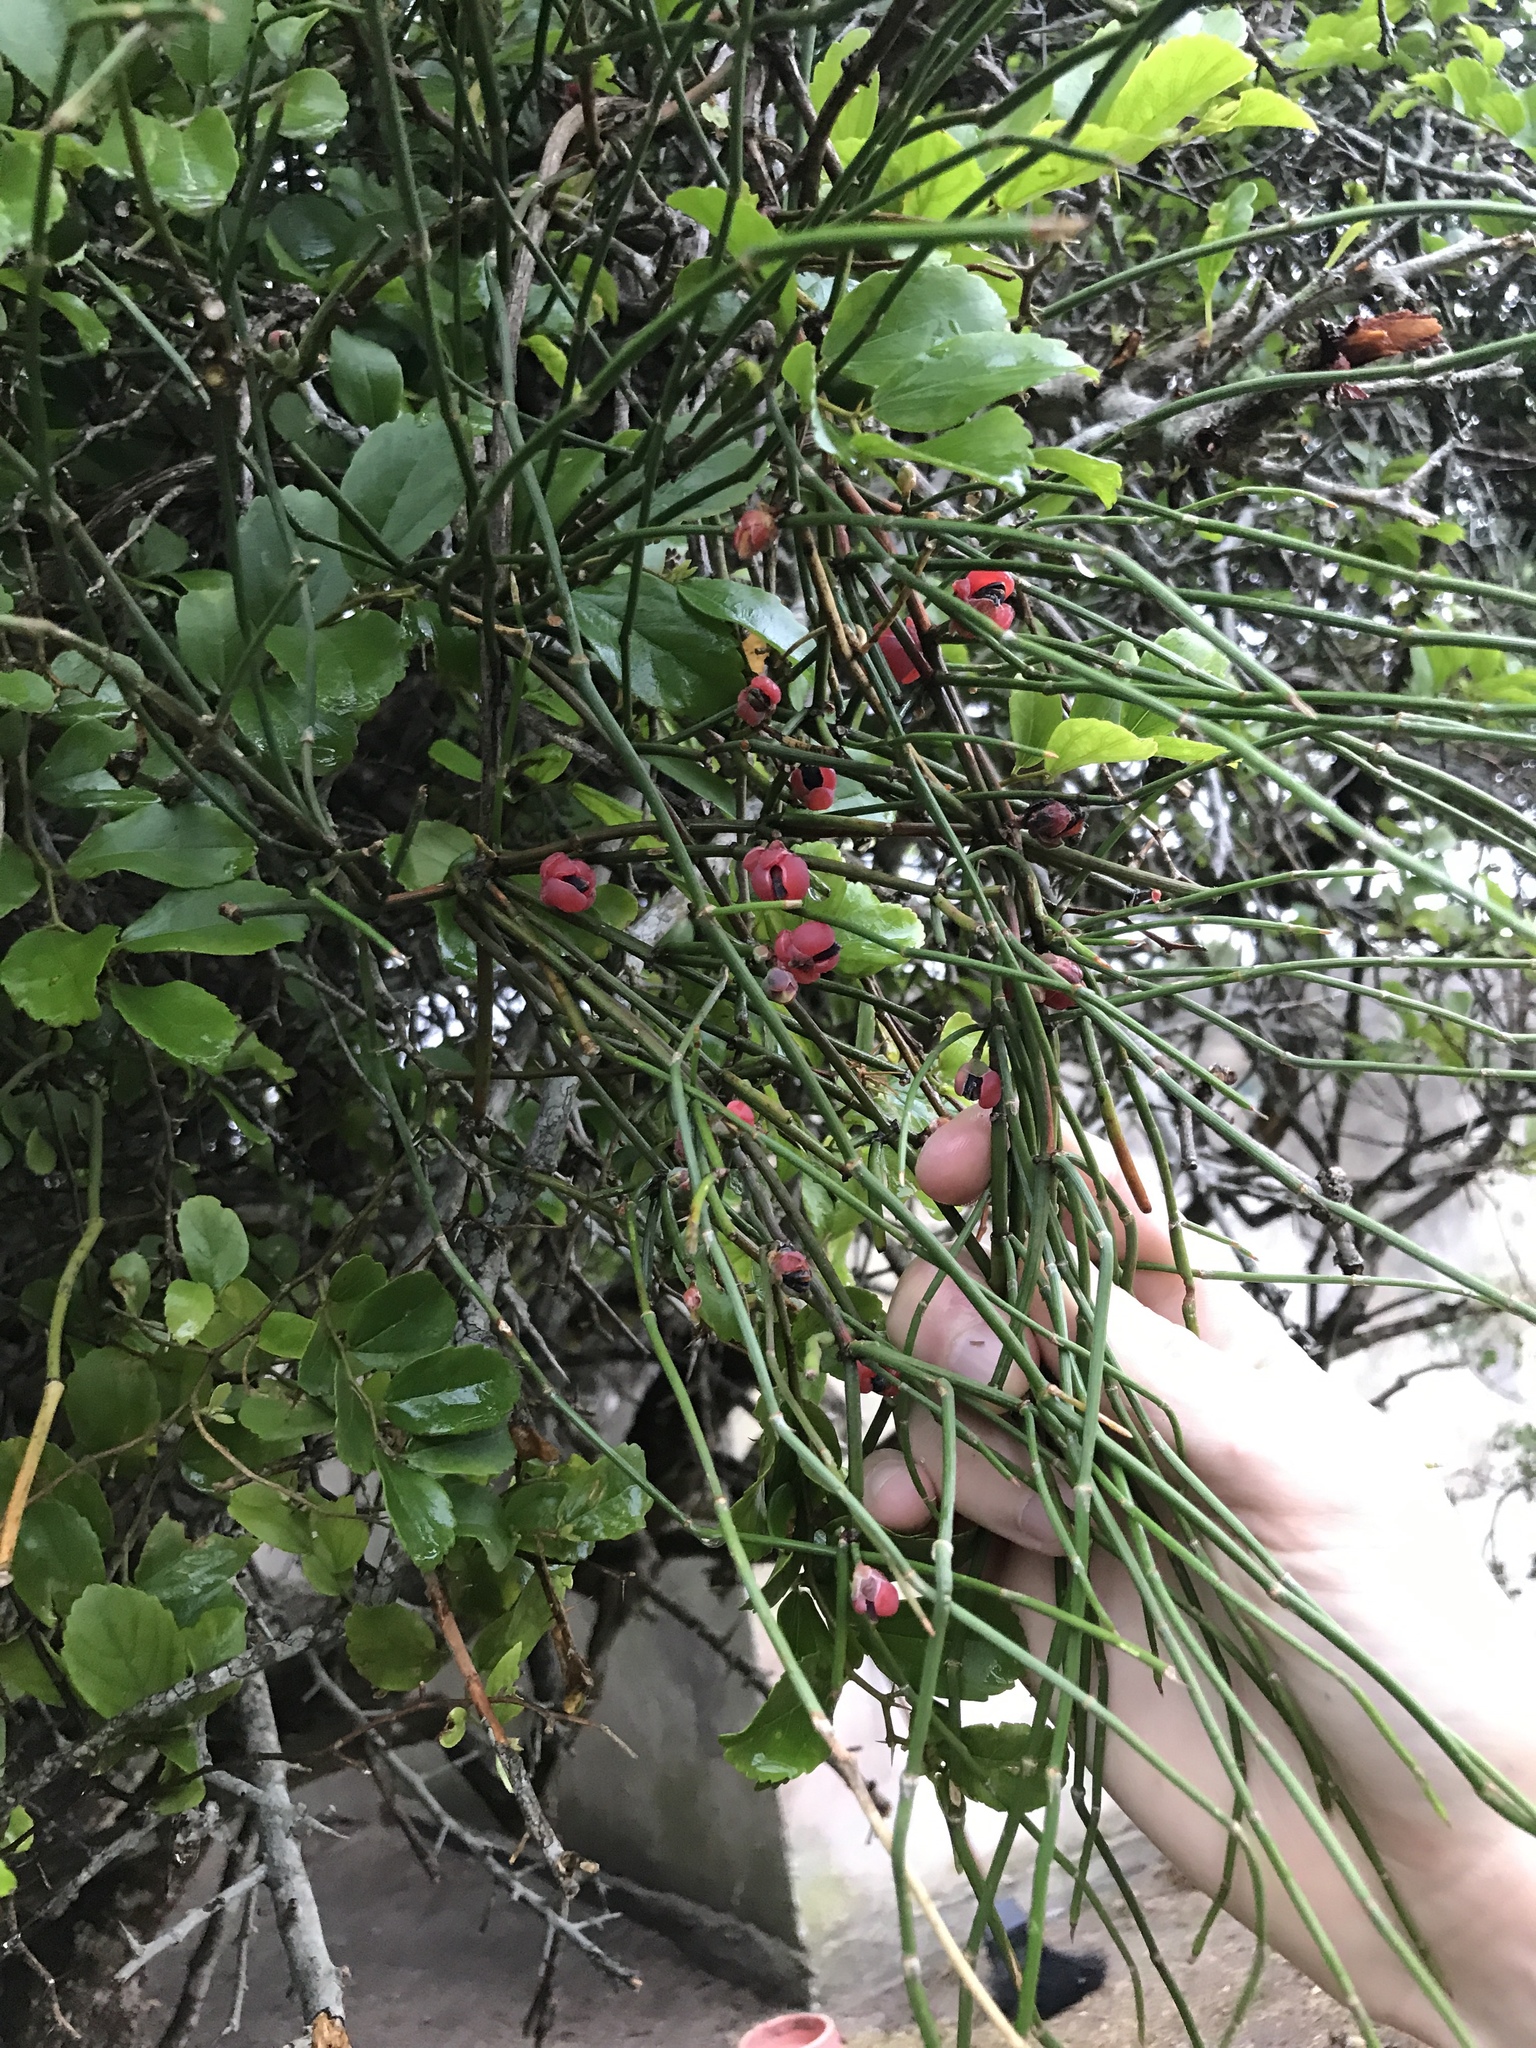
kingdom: Plantae
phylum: Tracheophyta
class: Gnetopsida
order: Ephedrales
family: Ephedraceae
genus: Ephedra
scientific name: Ephedra tweedieana
